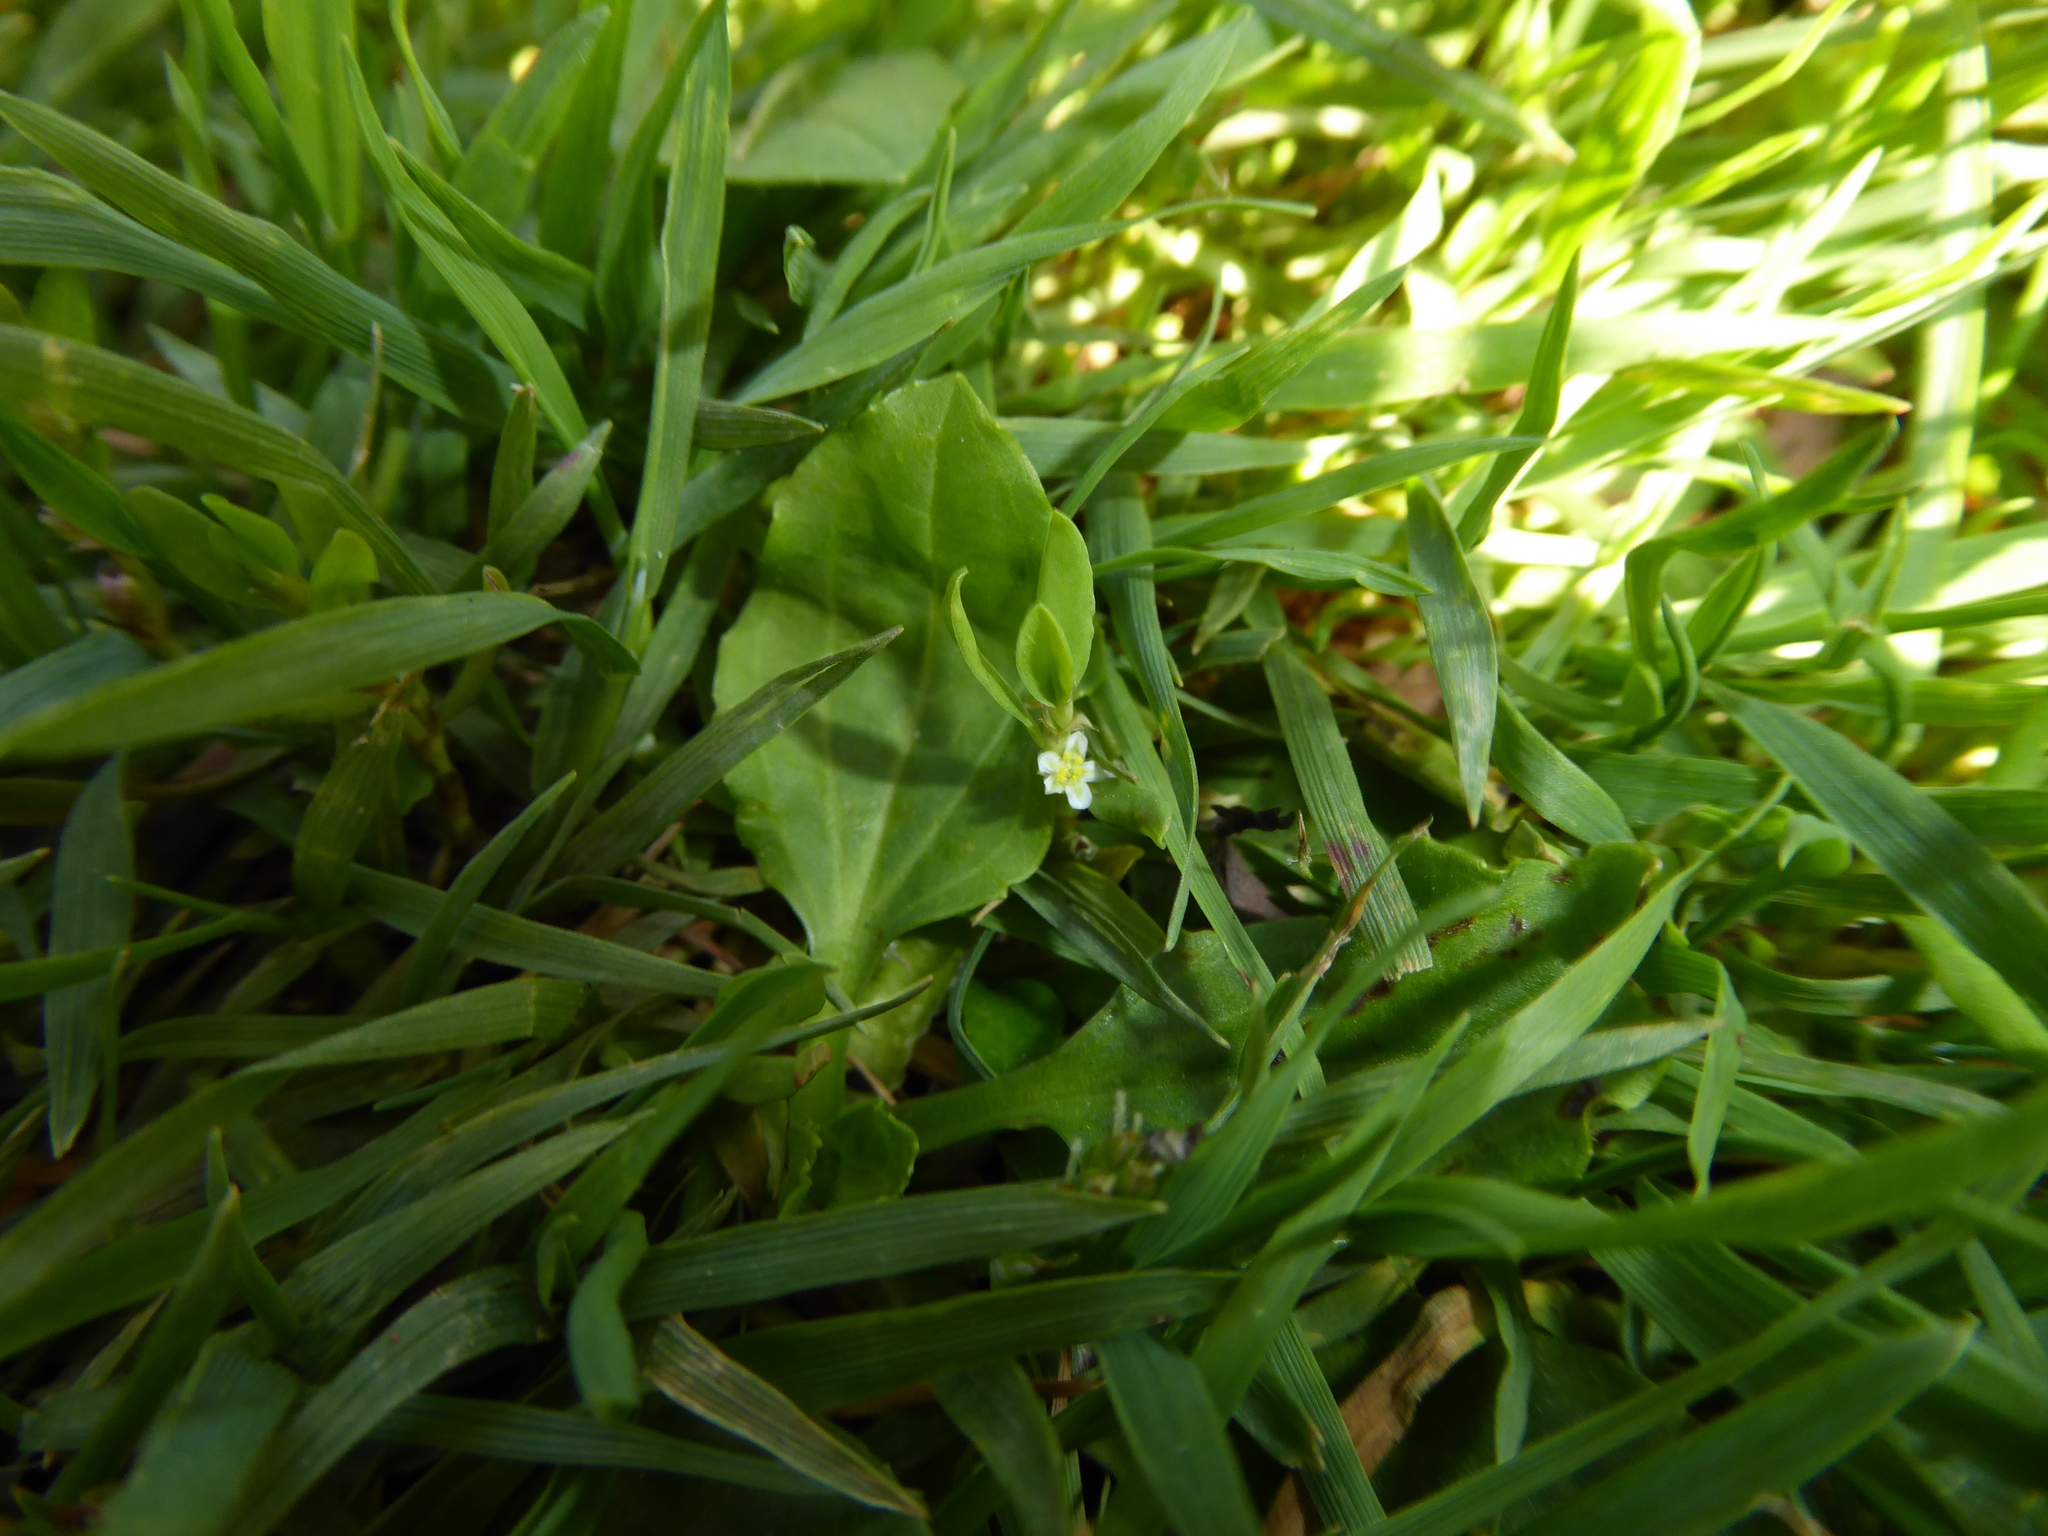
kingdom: Plantae
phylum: Tracheophyta
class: Magnoliopsida
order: Caryophyllales
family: Polygonaceae
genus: Polygonum
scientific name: Polygonum
